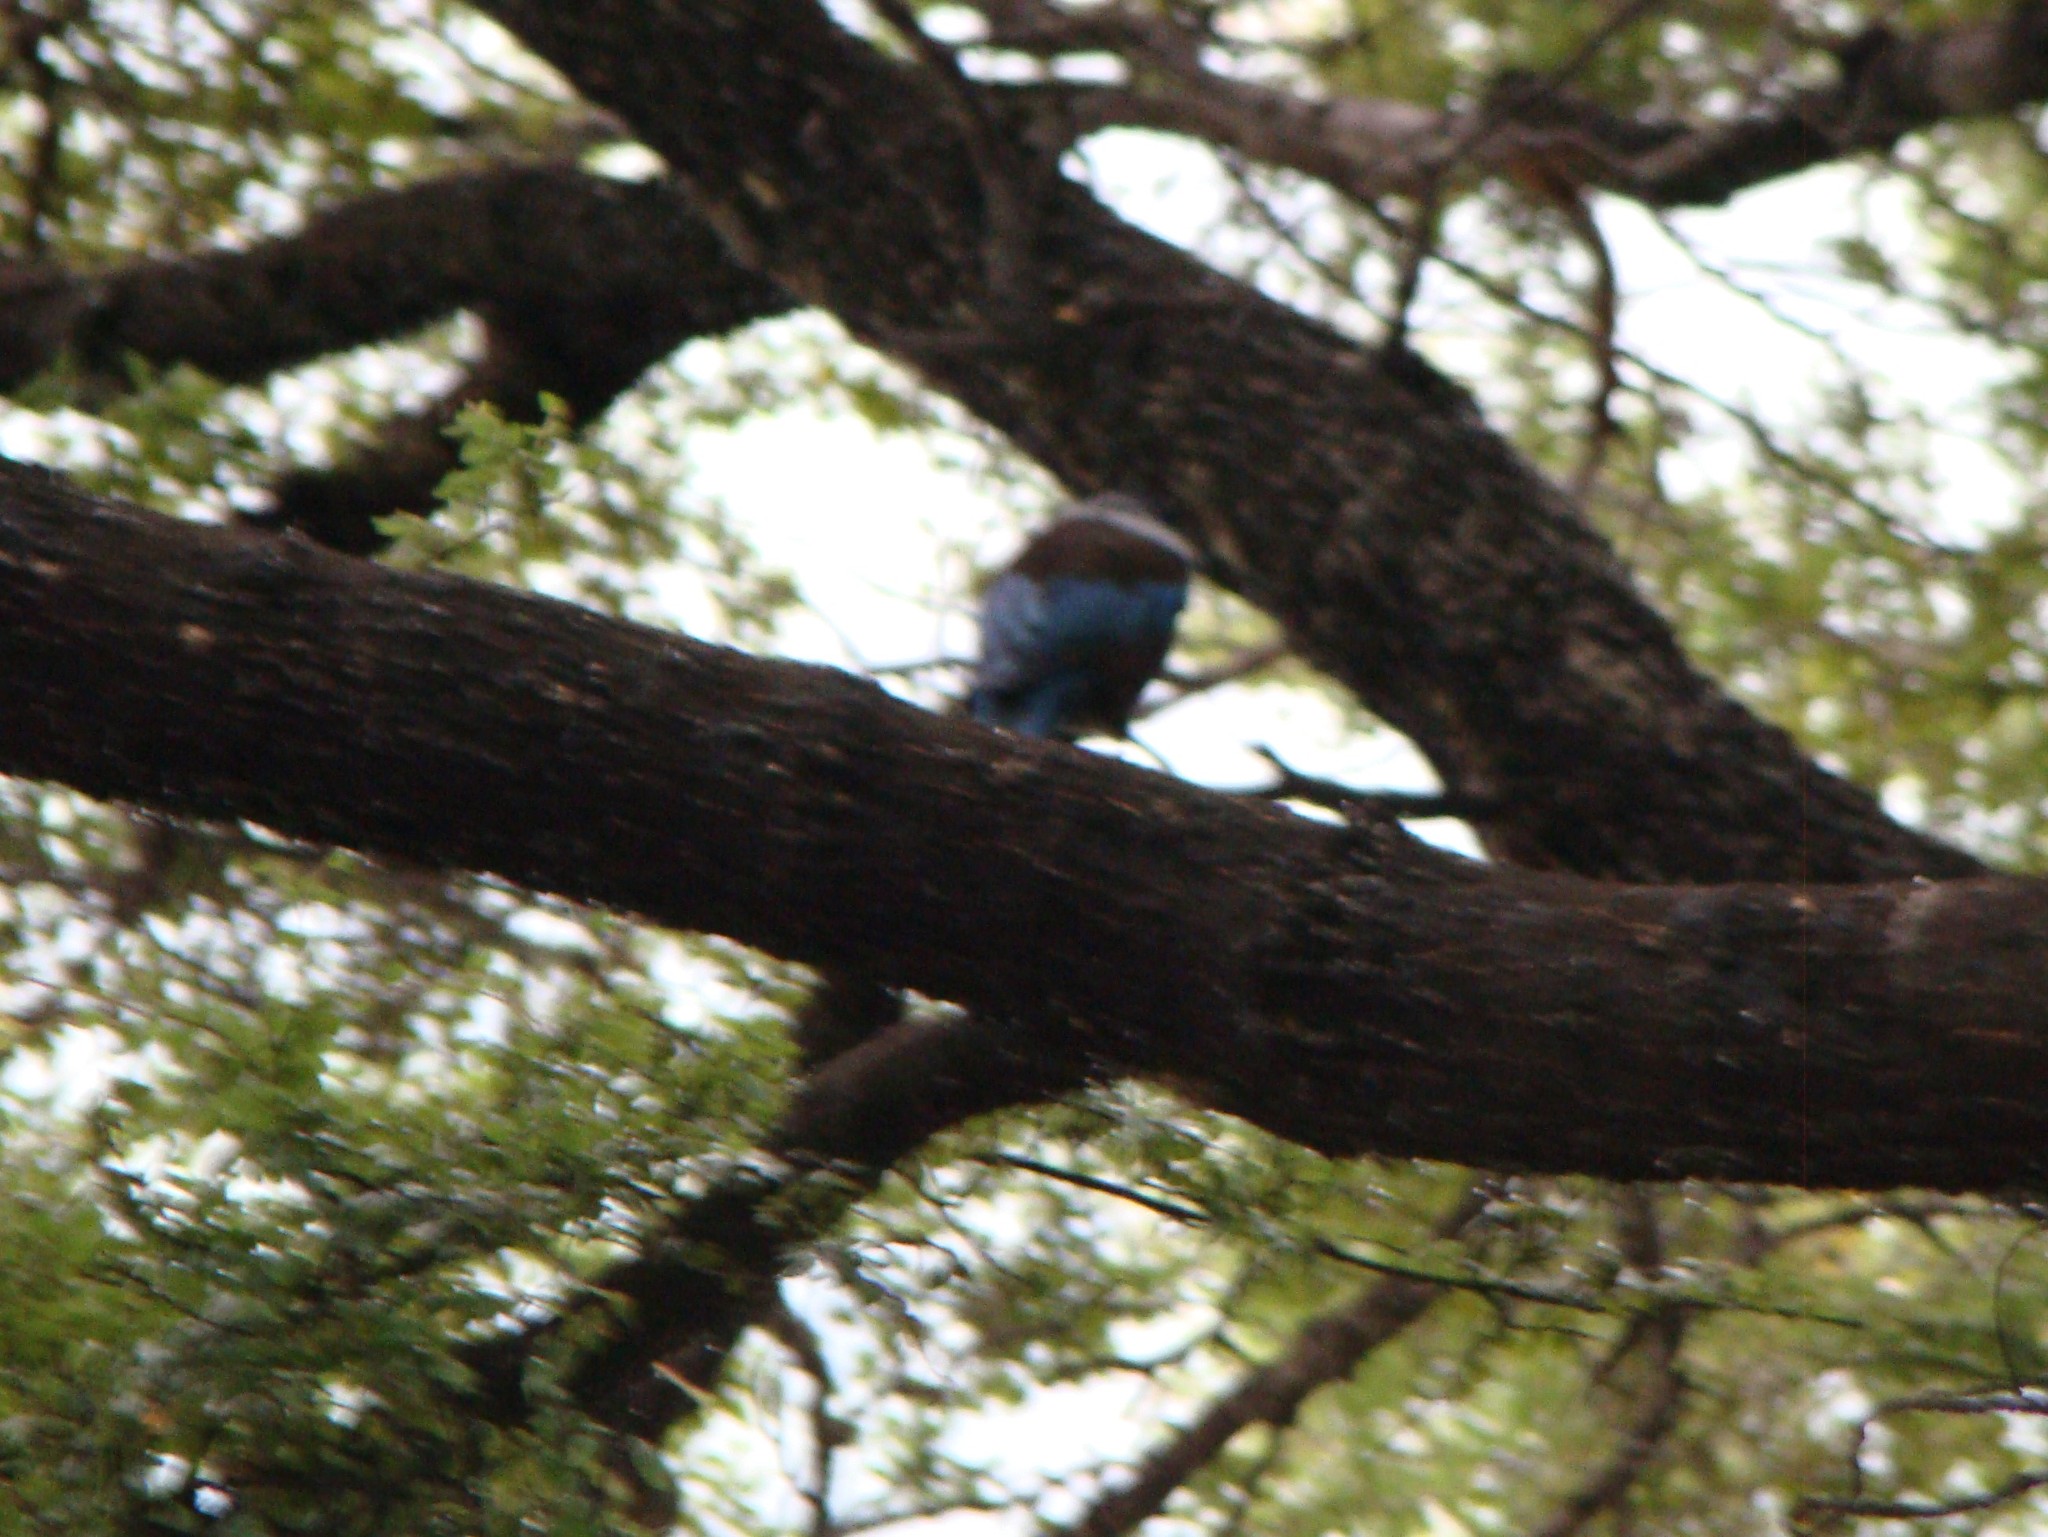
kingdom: Animalia
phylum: Chordata
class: Aves
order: Passeriformes
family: Meliphagidae
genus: Prosthemadera
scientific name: Prosthemadera novaeseelandiae
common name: Tui
